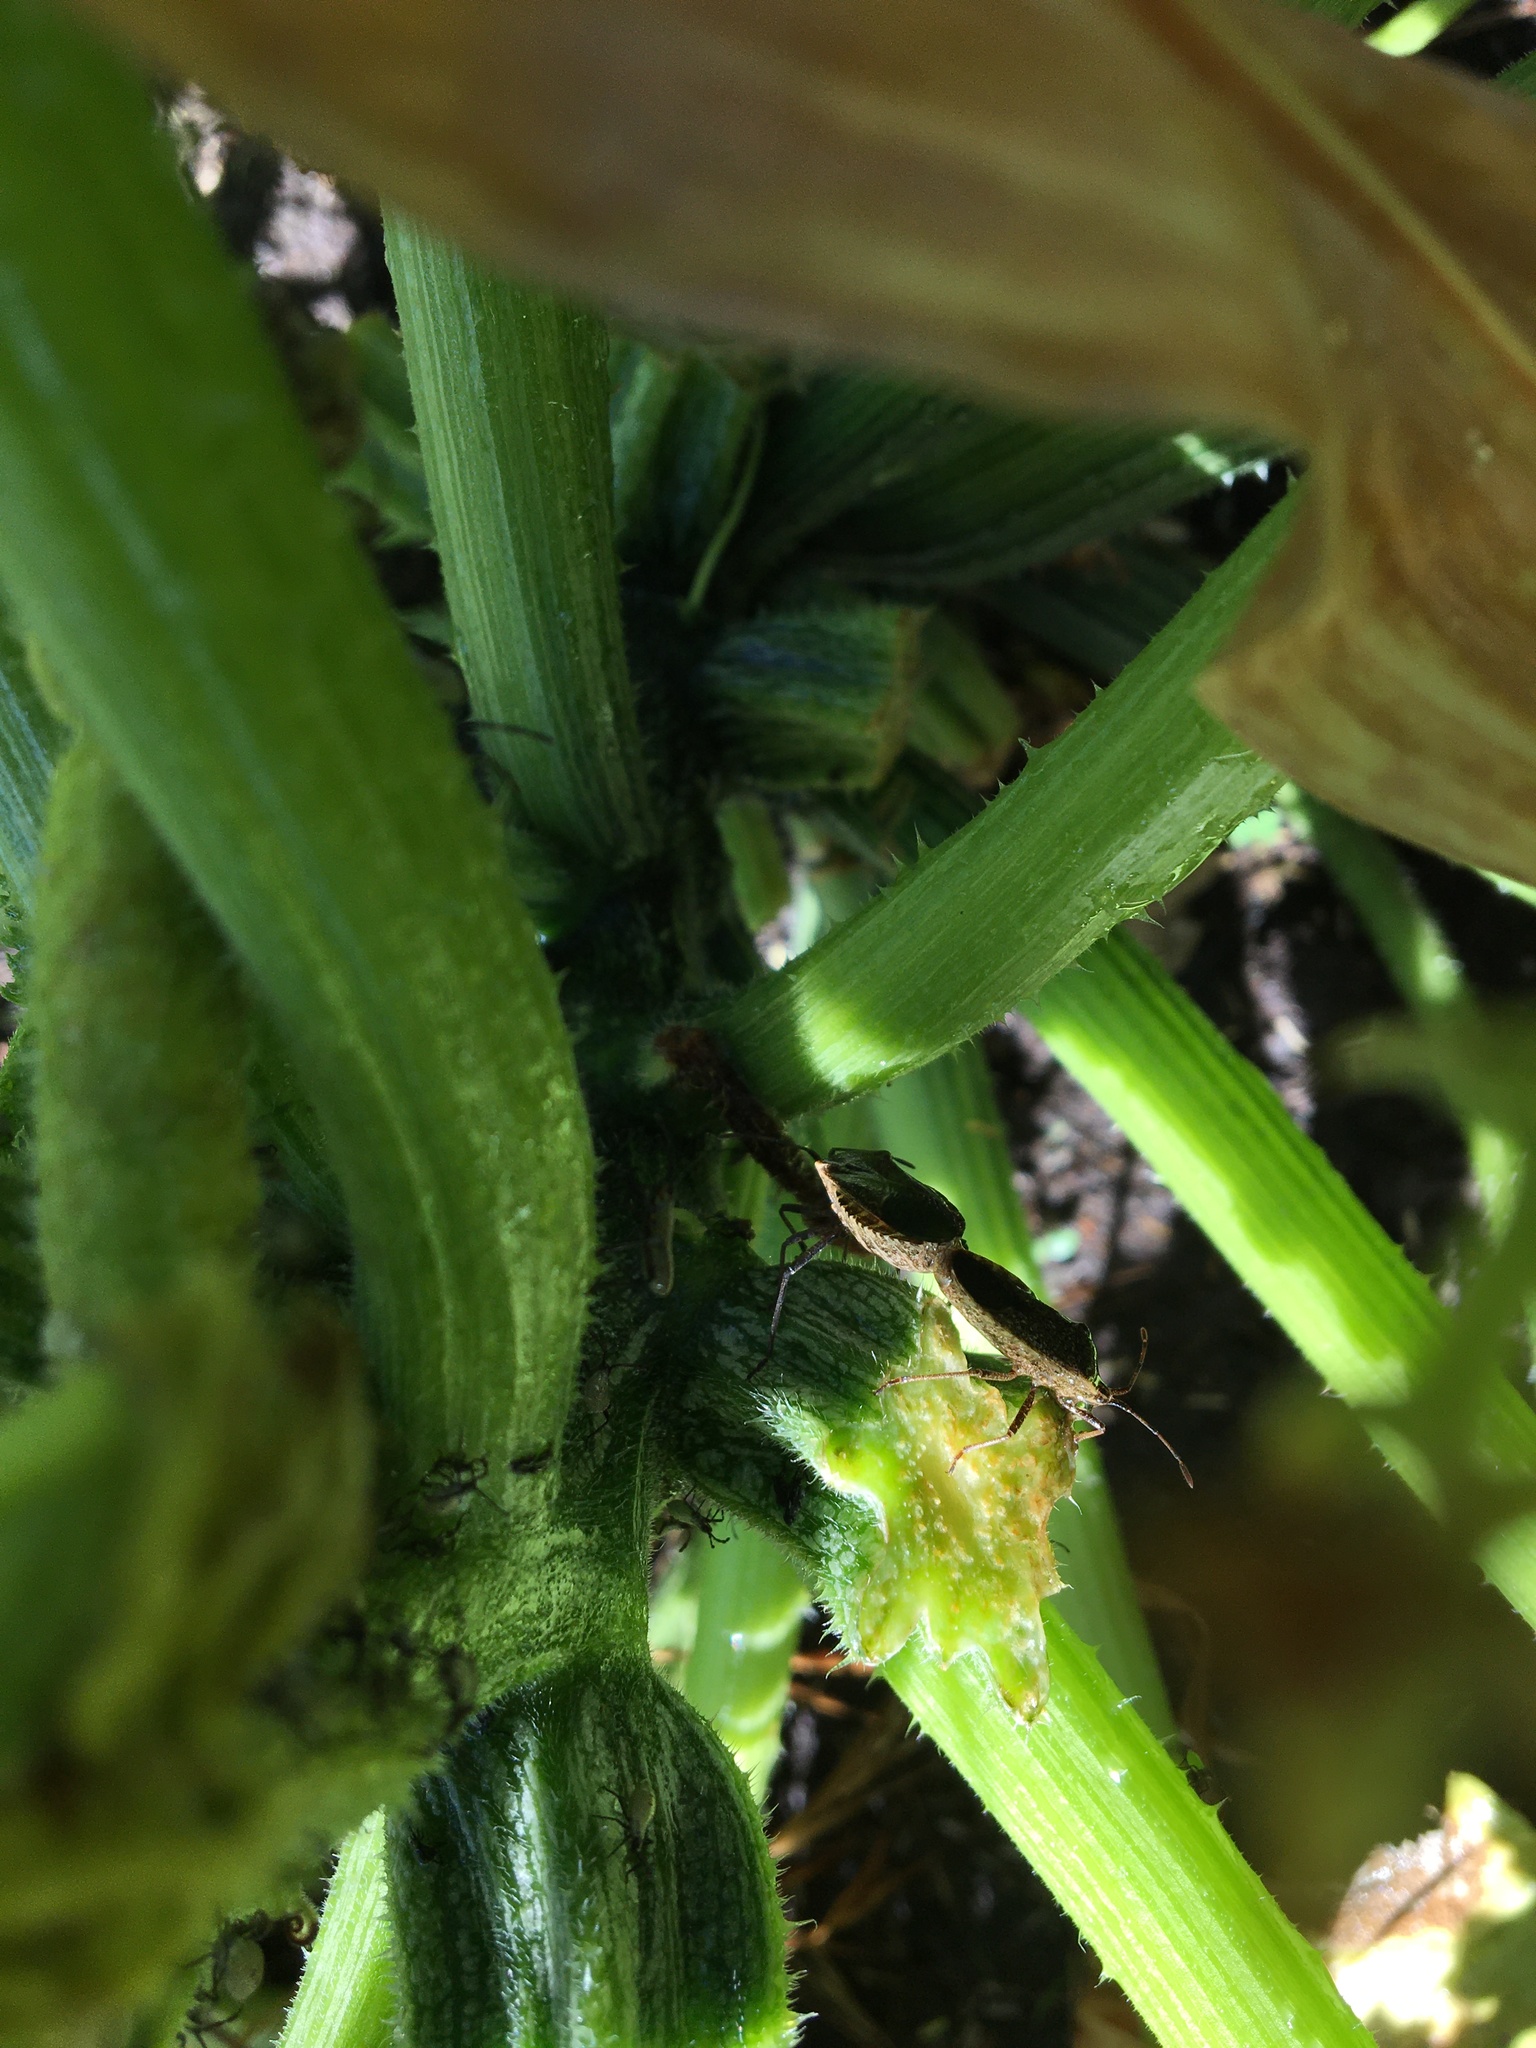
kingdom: Animalia
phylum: Arthropoda
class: Insecta
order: Hemiptera
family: Coreidae
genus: Anasa
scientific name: Anasa tristis
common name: Squash bug
